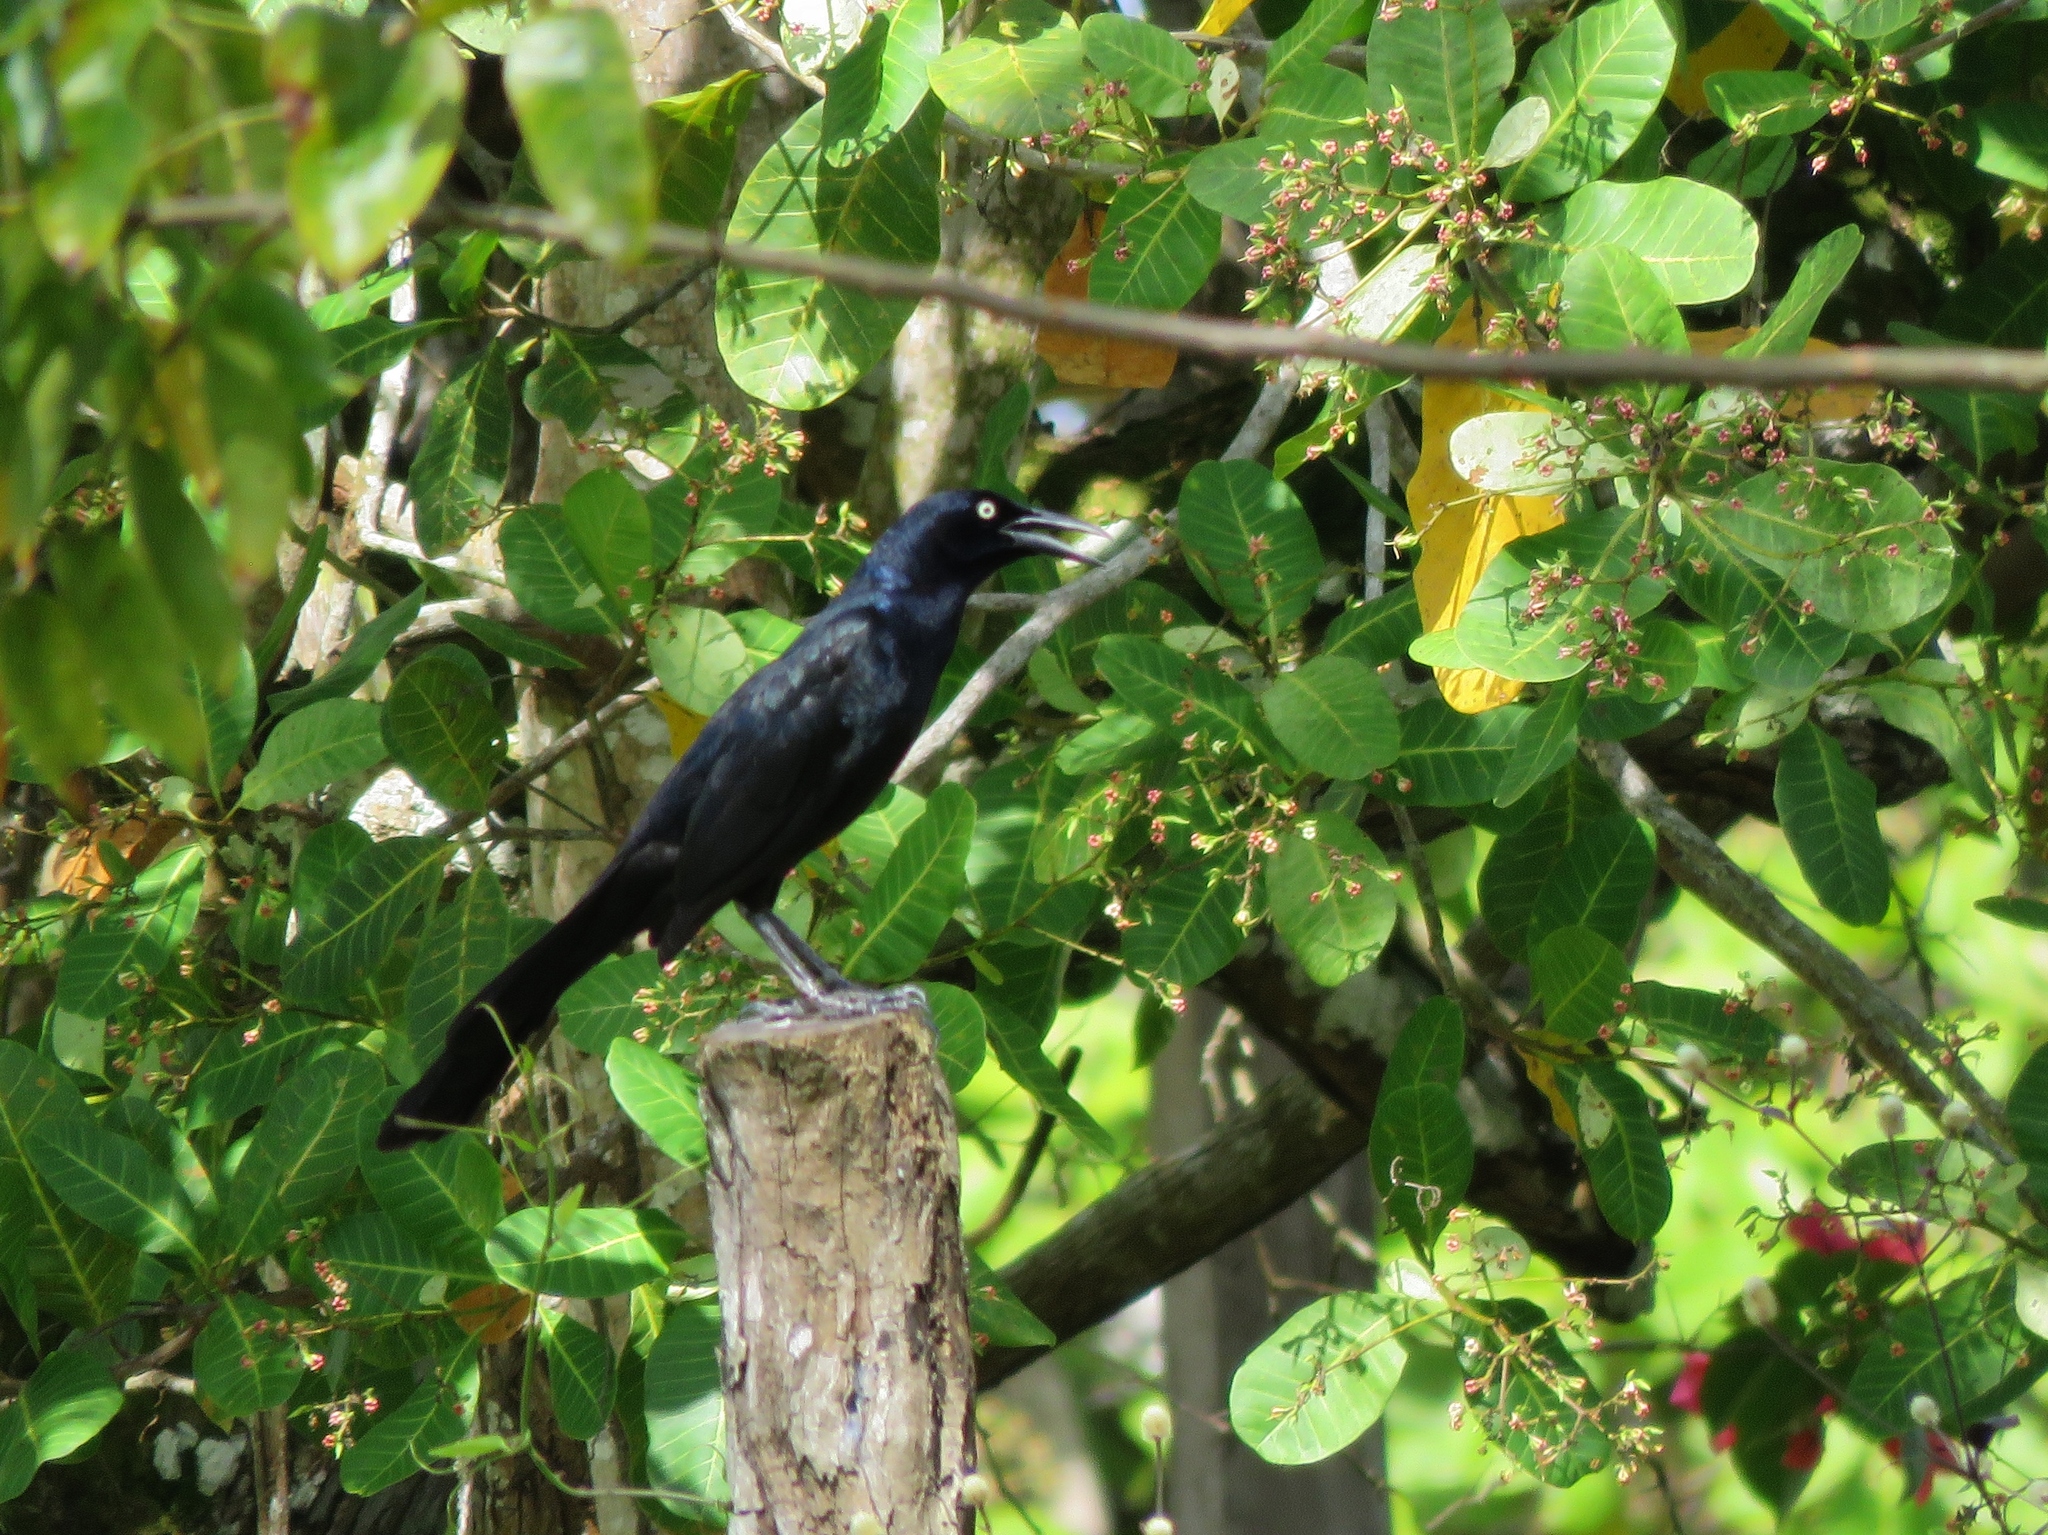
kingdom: Animalia
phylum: Chordata
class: Aves
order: Passeriformes
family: Icteridae
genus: Quiscalus
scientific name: Quiscalus mexicanus
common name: Great-tailed grackle
